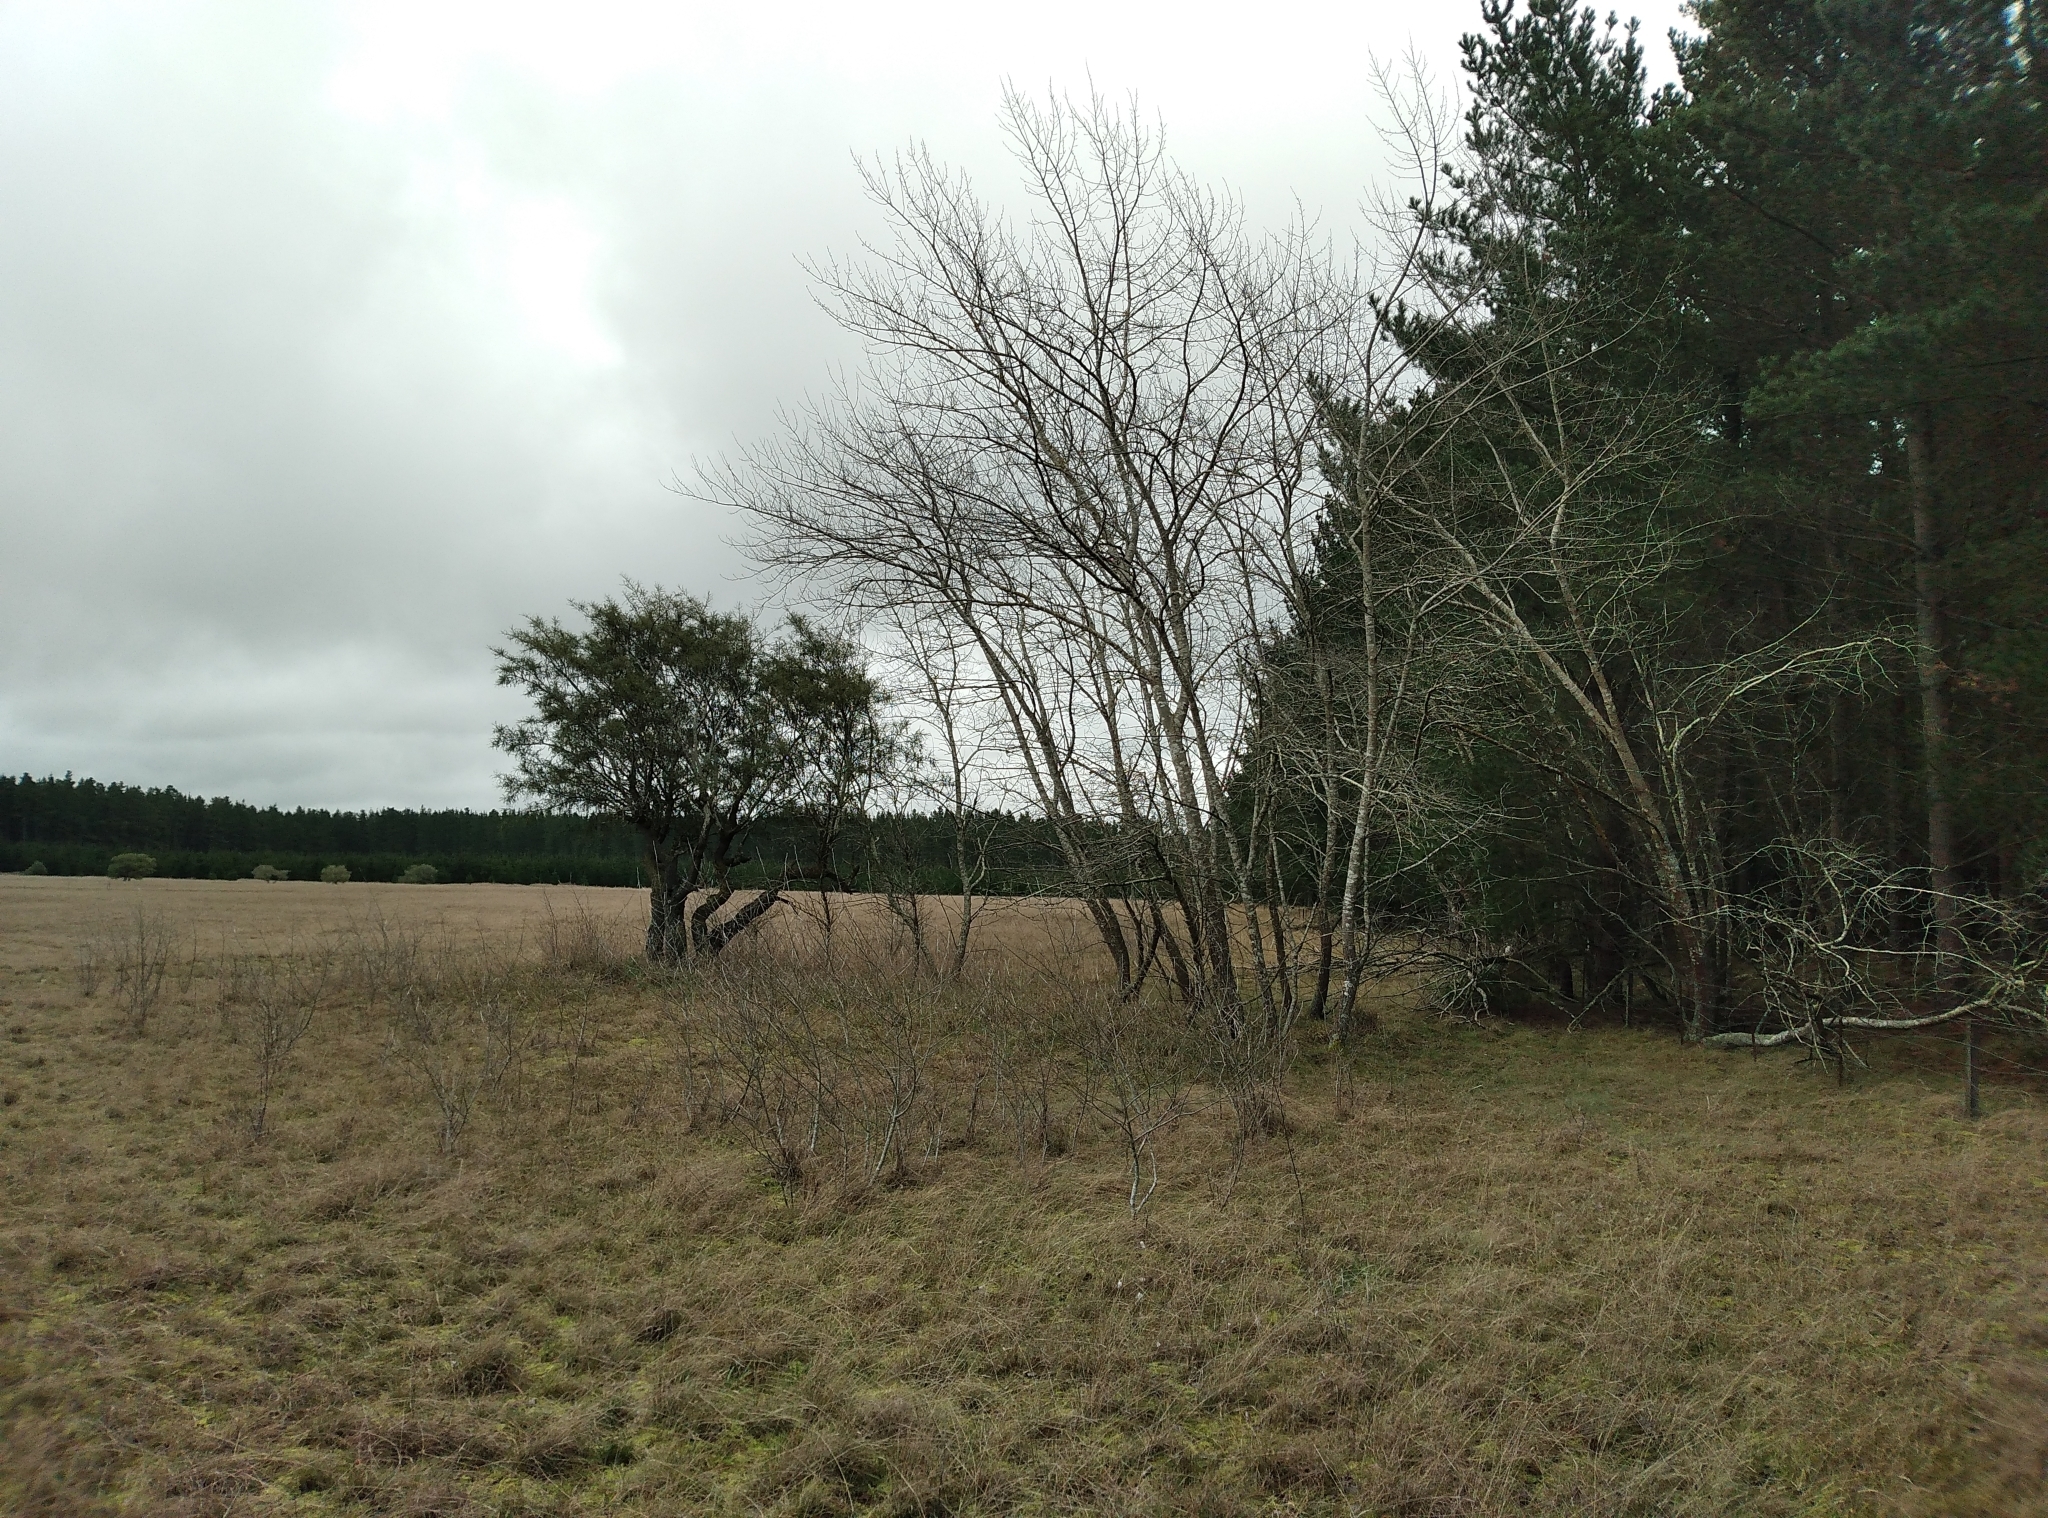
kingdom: Plantae
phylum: Tracheophyta
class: Magnoliopsida
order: Malpighiales
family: Salicaceae
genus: Populus
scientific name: Populus alba
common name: White poplar
